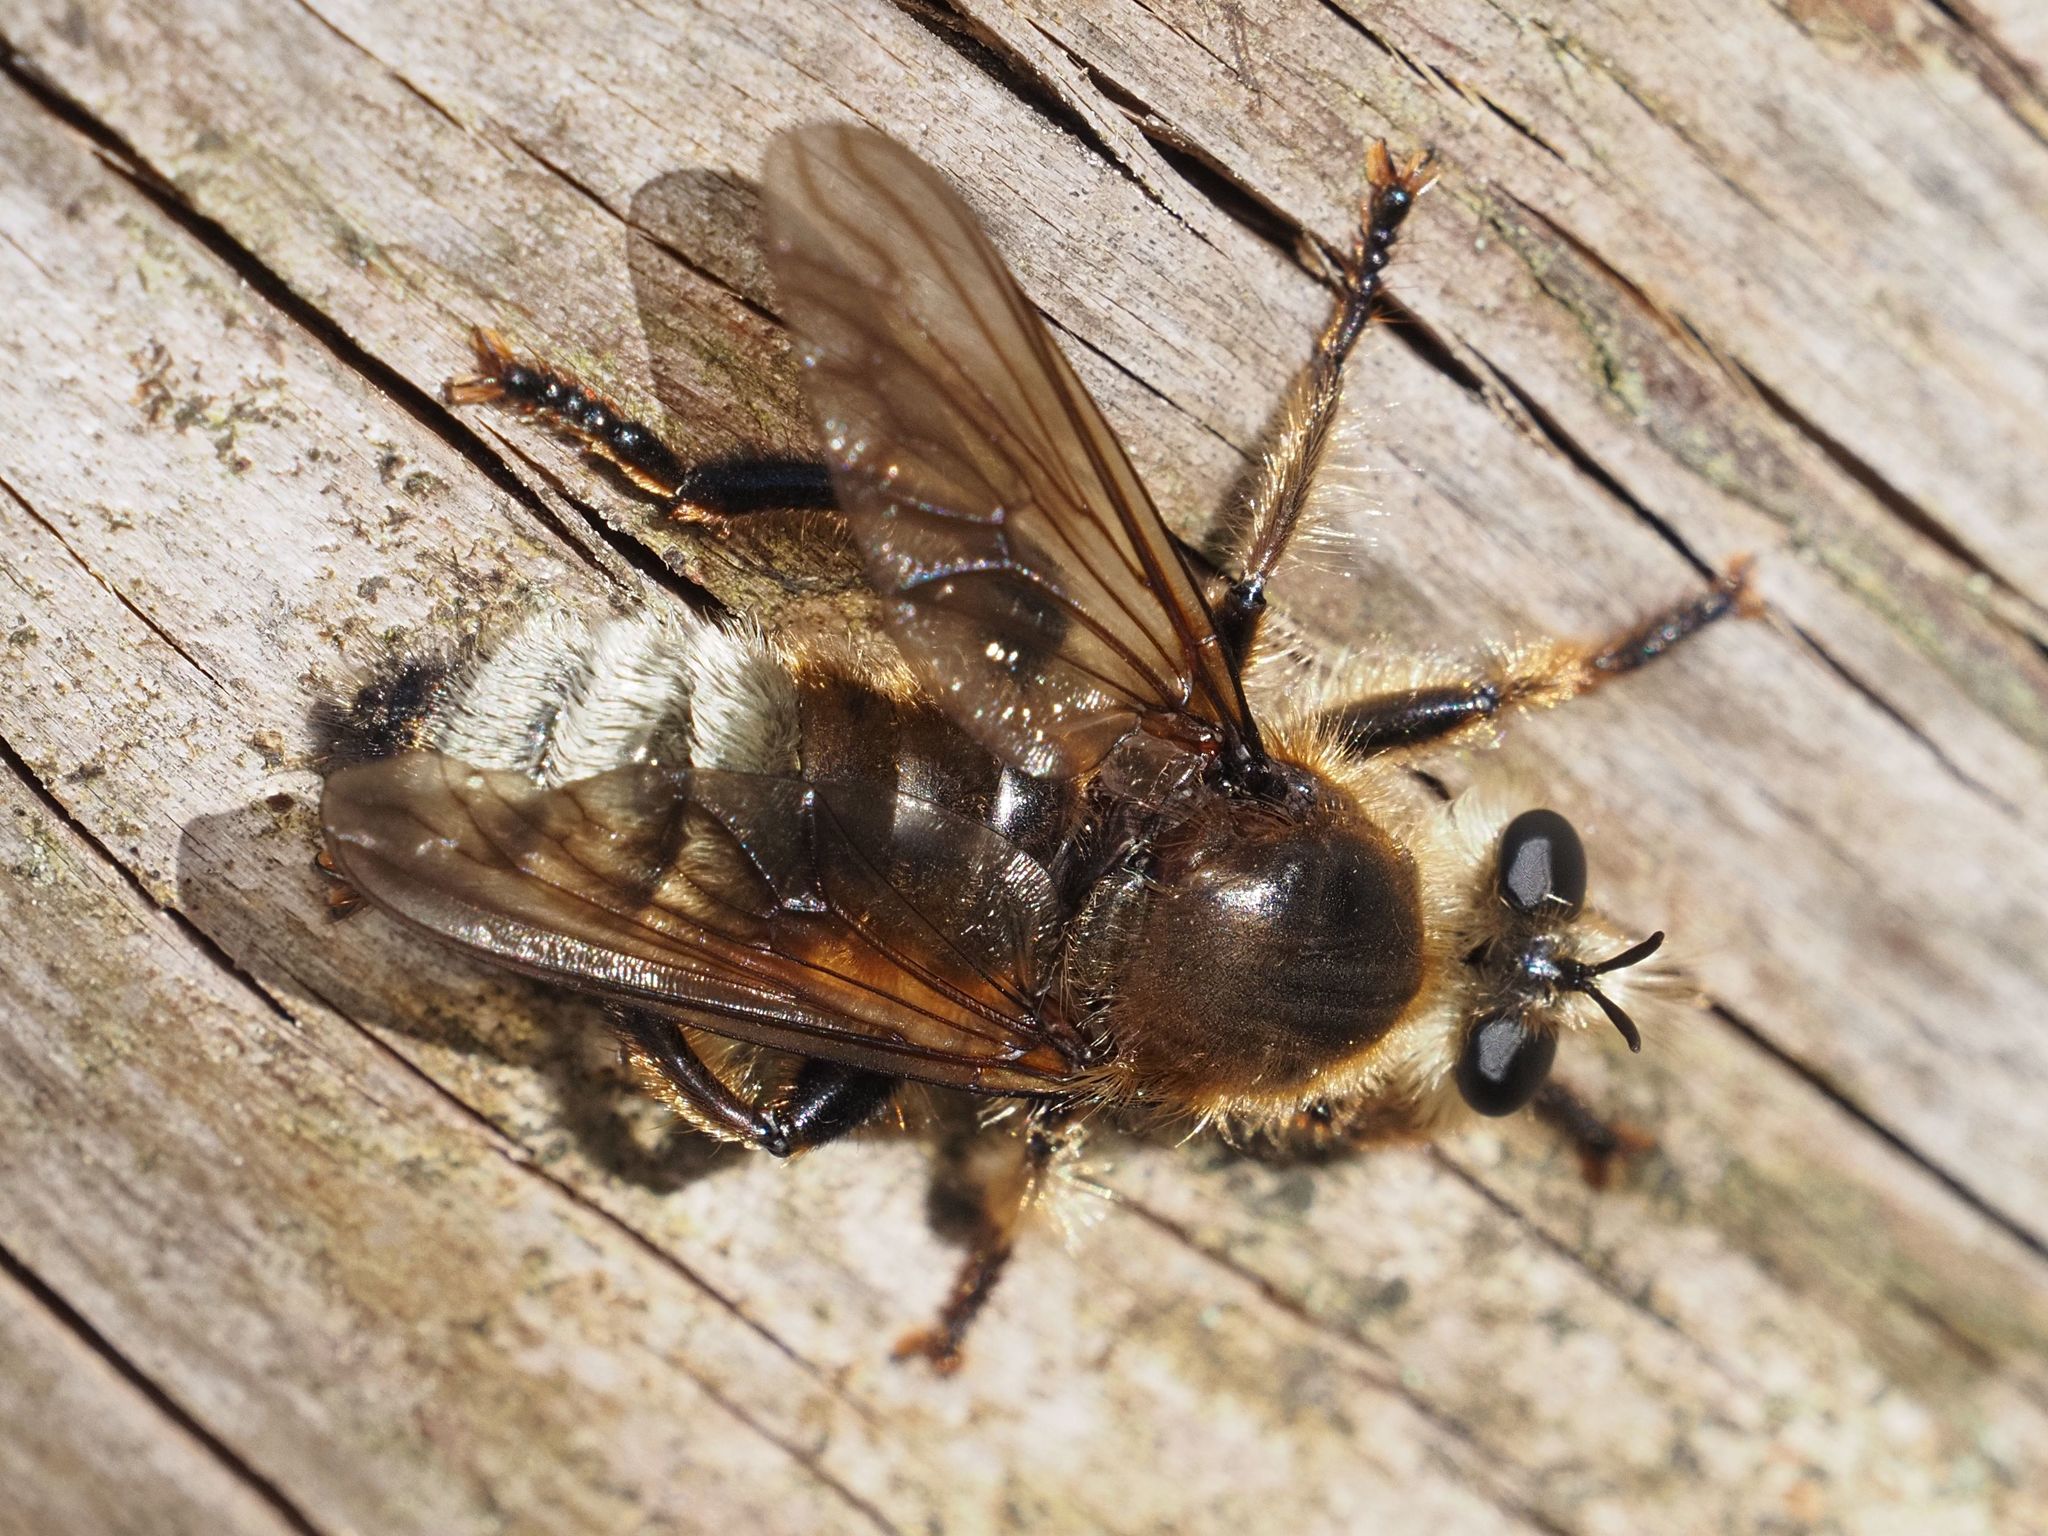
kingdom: Animalia
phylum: Arthropoda
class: Insecta
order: Diptera
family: Asilidae
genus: Laphria
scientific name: Laphria gibbosa
